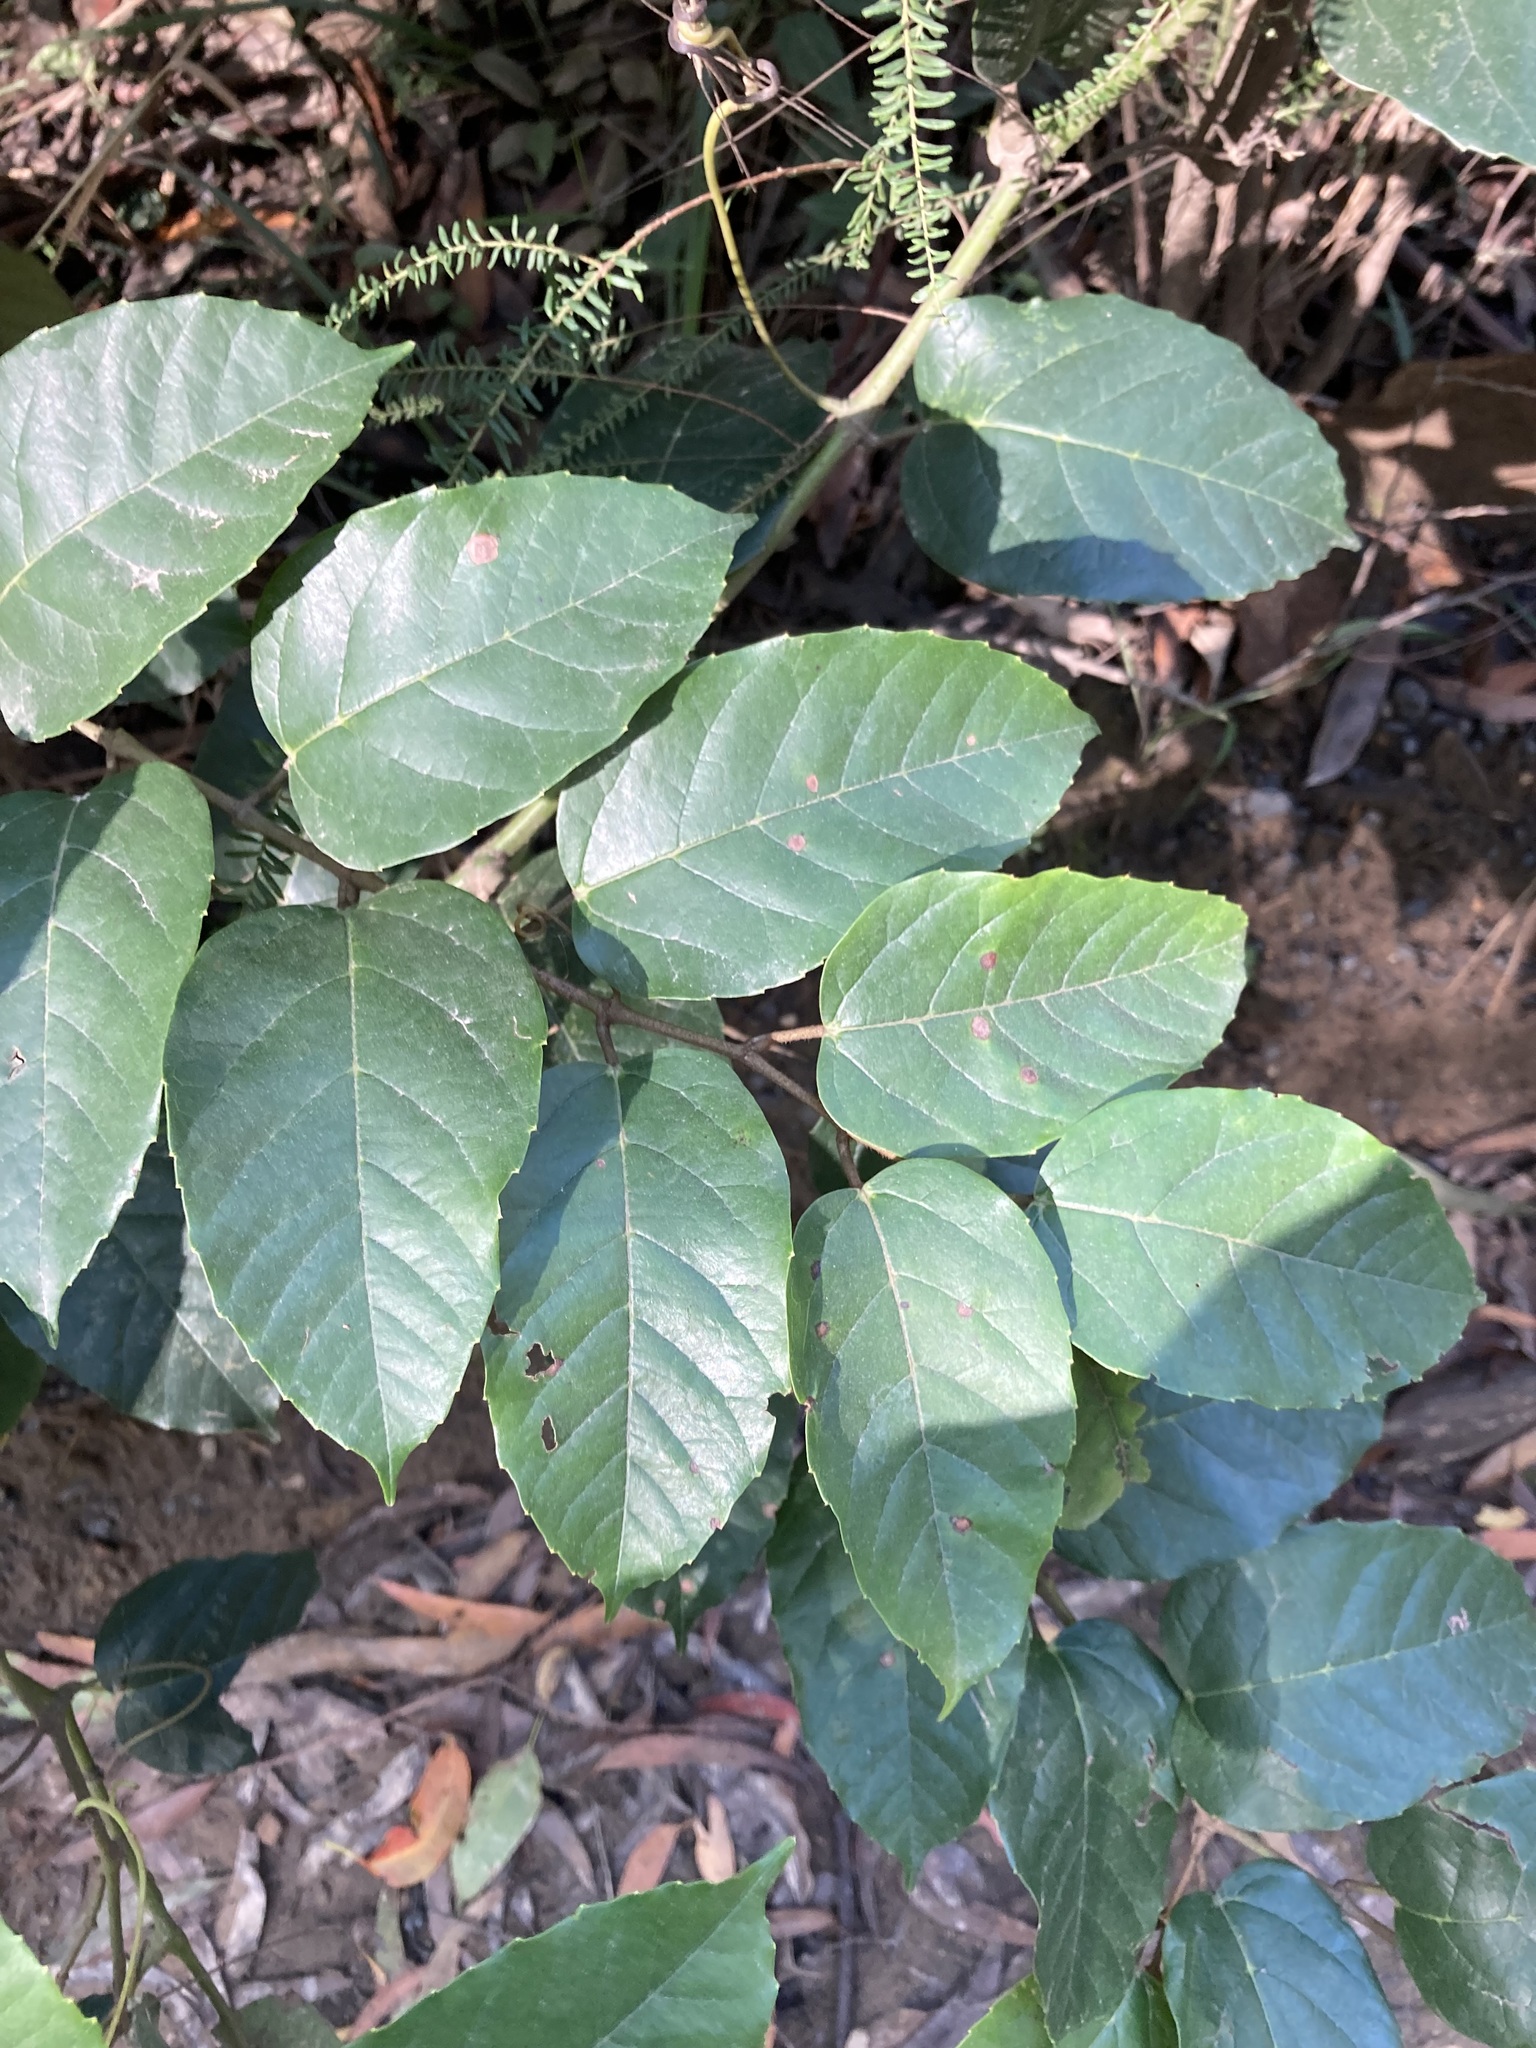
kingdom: Plantae
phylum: Tracheophyta
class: Magnoliopsida
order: Vitales
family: Vitaceae
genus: Cissus
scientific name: Cissus antarctica
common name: Kangaroo vine
